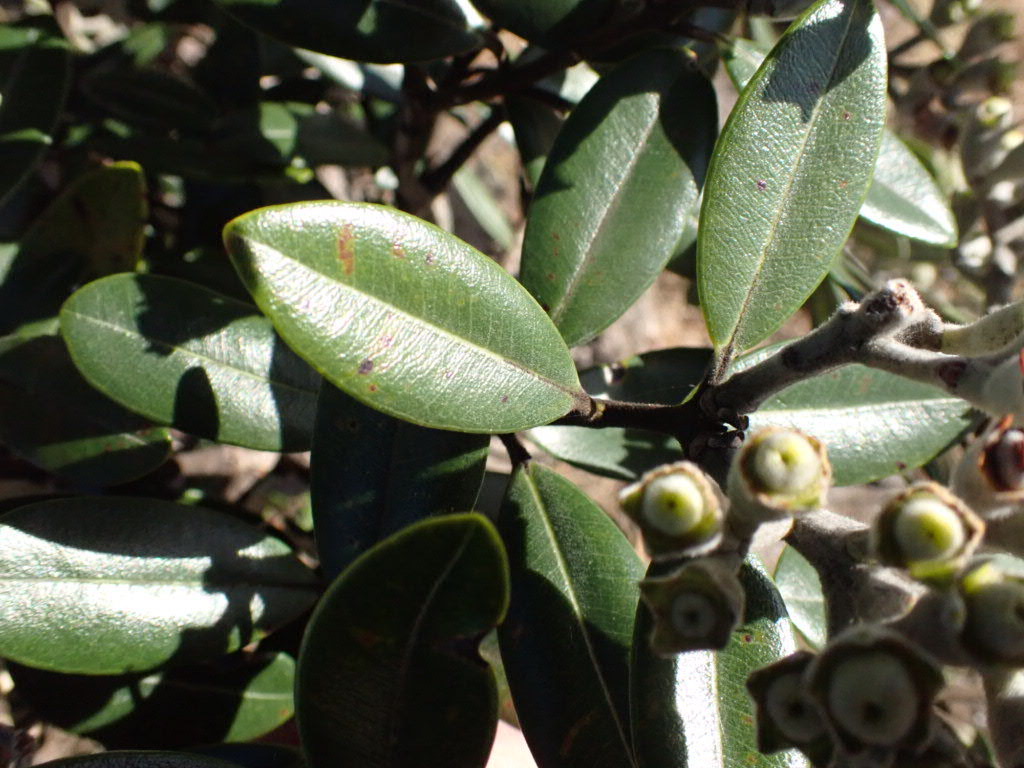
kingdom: Plantae
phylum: Tracheophyta
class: Magnoliopsida
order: Myrtales
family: Myrtaceae
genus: Metrosideros
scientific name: Metrosideros excelsa
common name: New zealand christmastree
